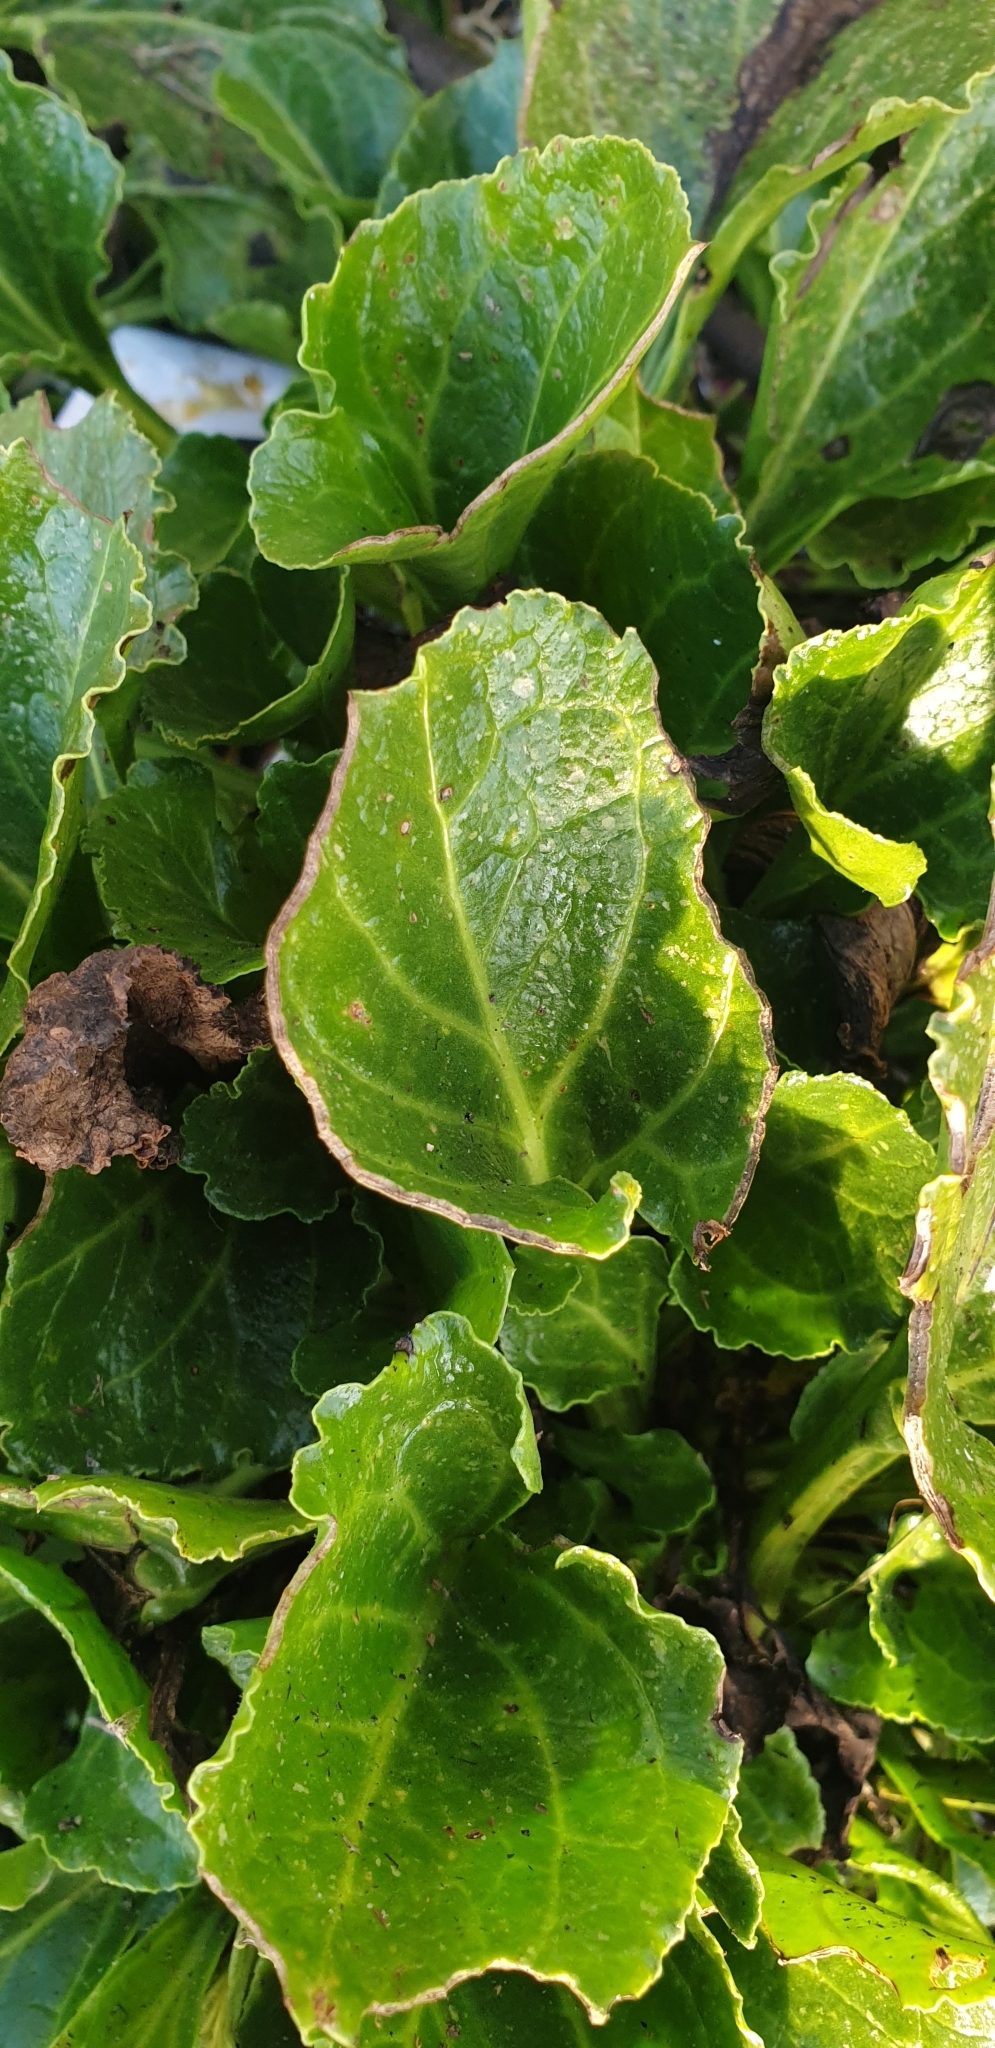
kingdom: Plantae
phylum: Tracheophyta
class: Magnoliopsida
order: Caryophyllales
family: Amaranthaceae
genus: Beta
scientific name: Beta vulgaris
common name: Beet
